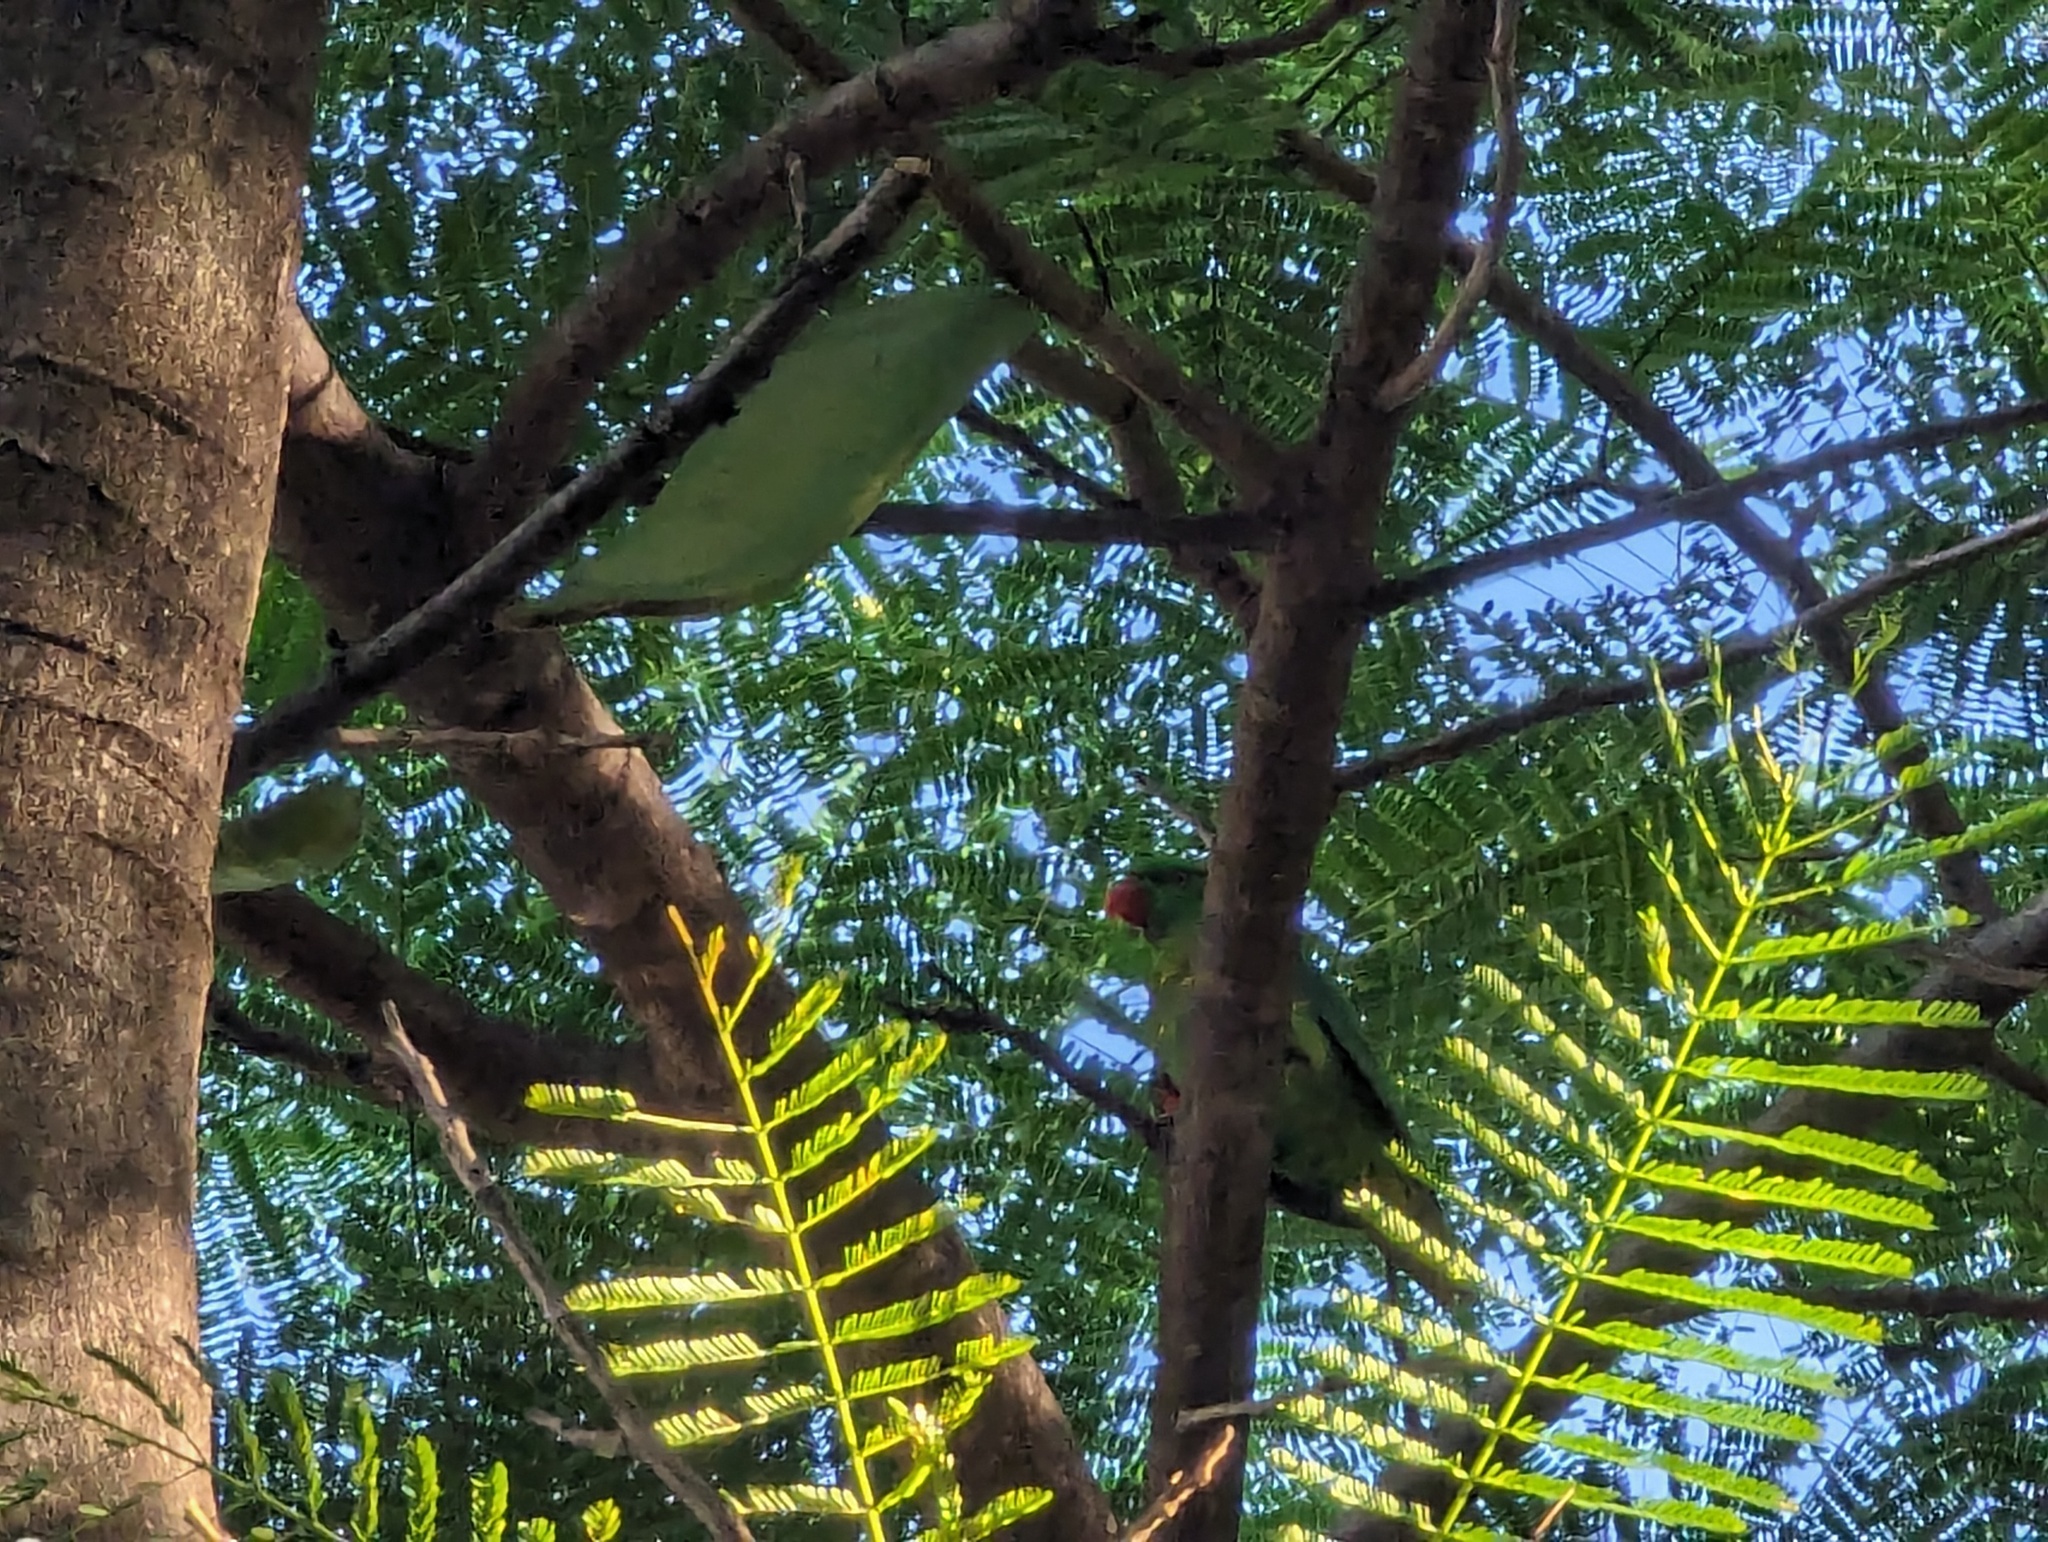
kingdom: Animalia
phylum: Chordata
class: Aves
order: Psittaciformes
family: Psittacidae
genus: Trichoglossus
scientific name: Trichoglossus chlorolepidotus
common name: Scaly-breasted lorikeet
